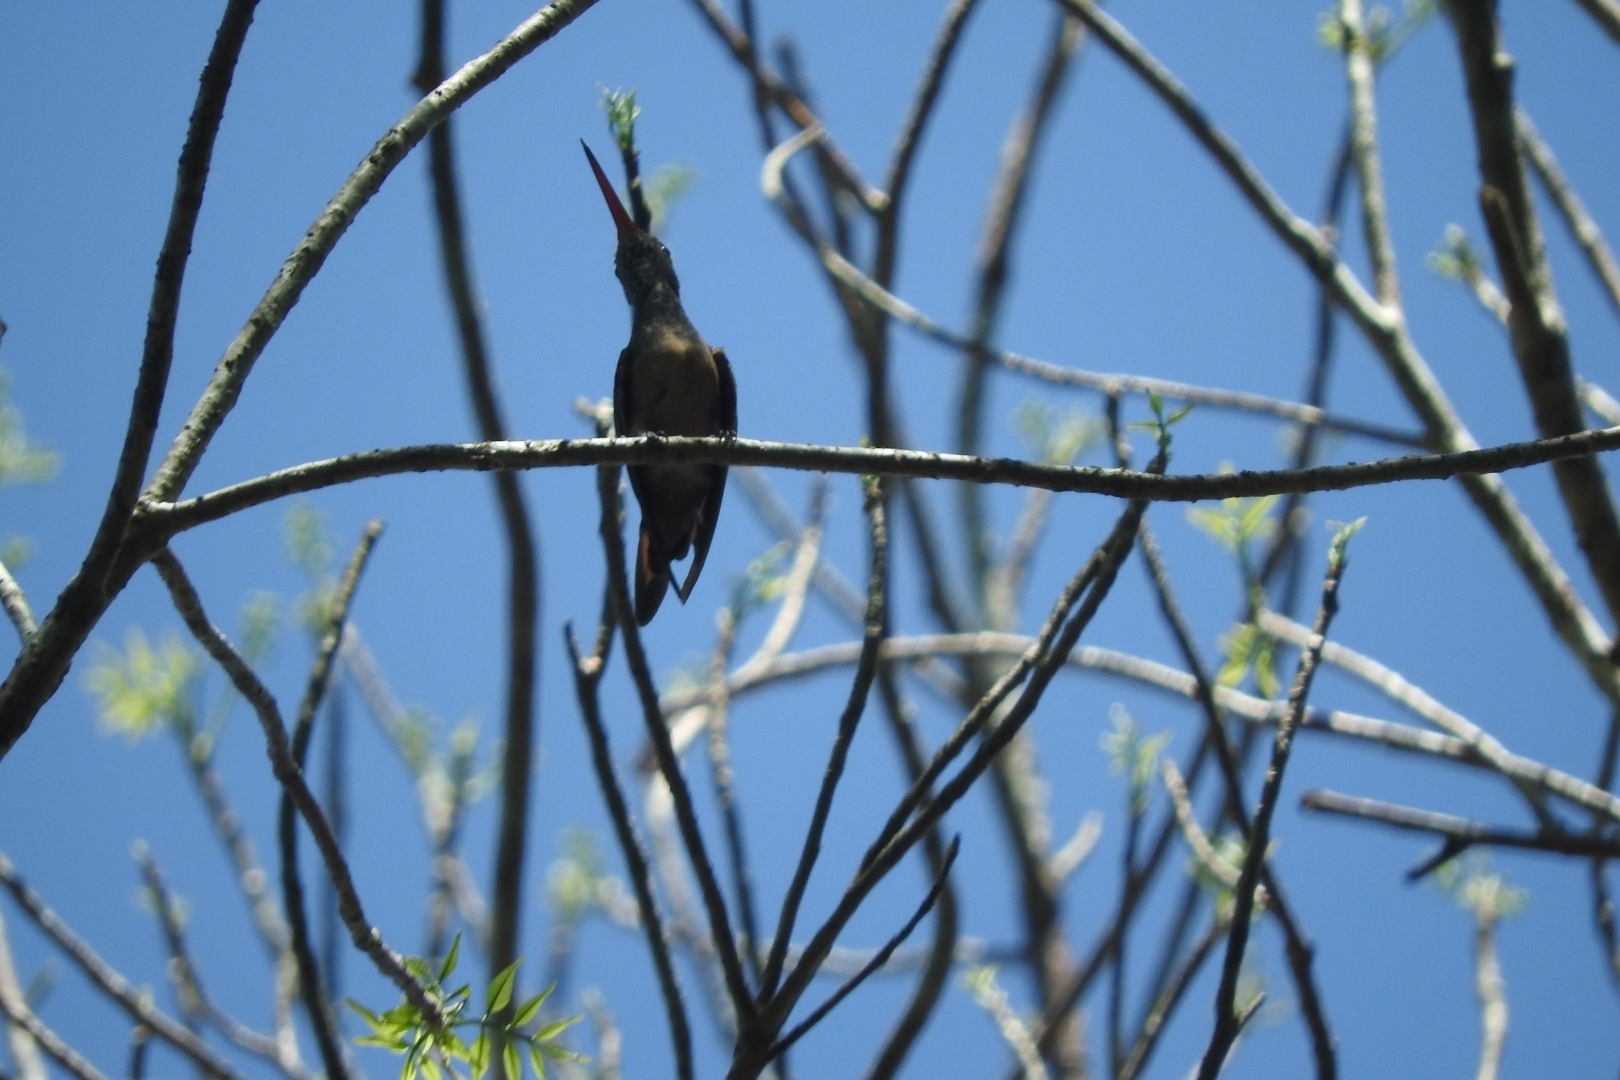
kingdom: Animalia
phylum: Chordata
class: Aves
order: Apodiformes
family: Trochilidae
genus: Amazilia
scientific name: Amazilia yucatanensis
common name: Buff-bellied hummingbird
